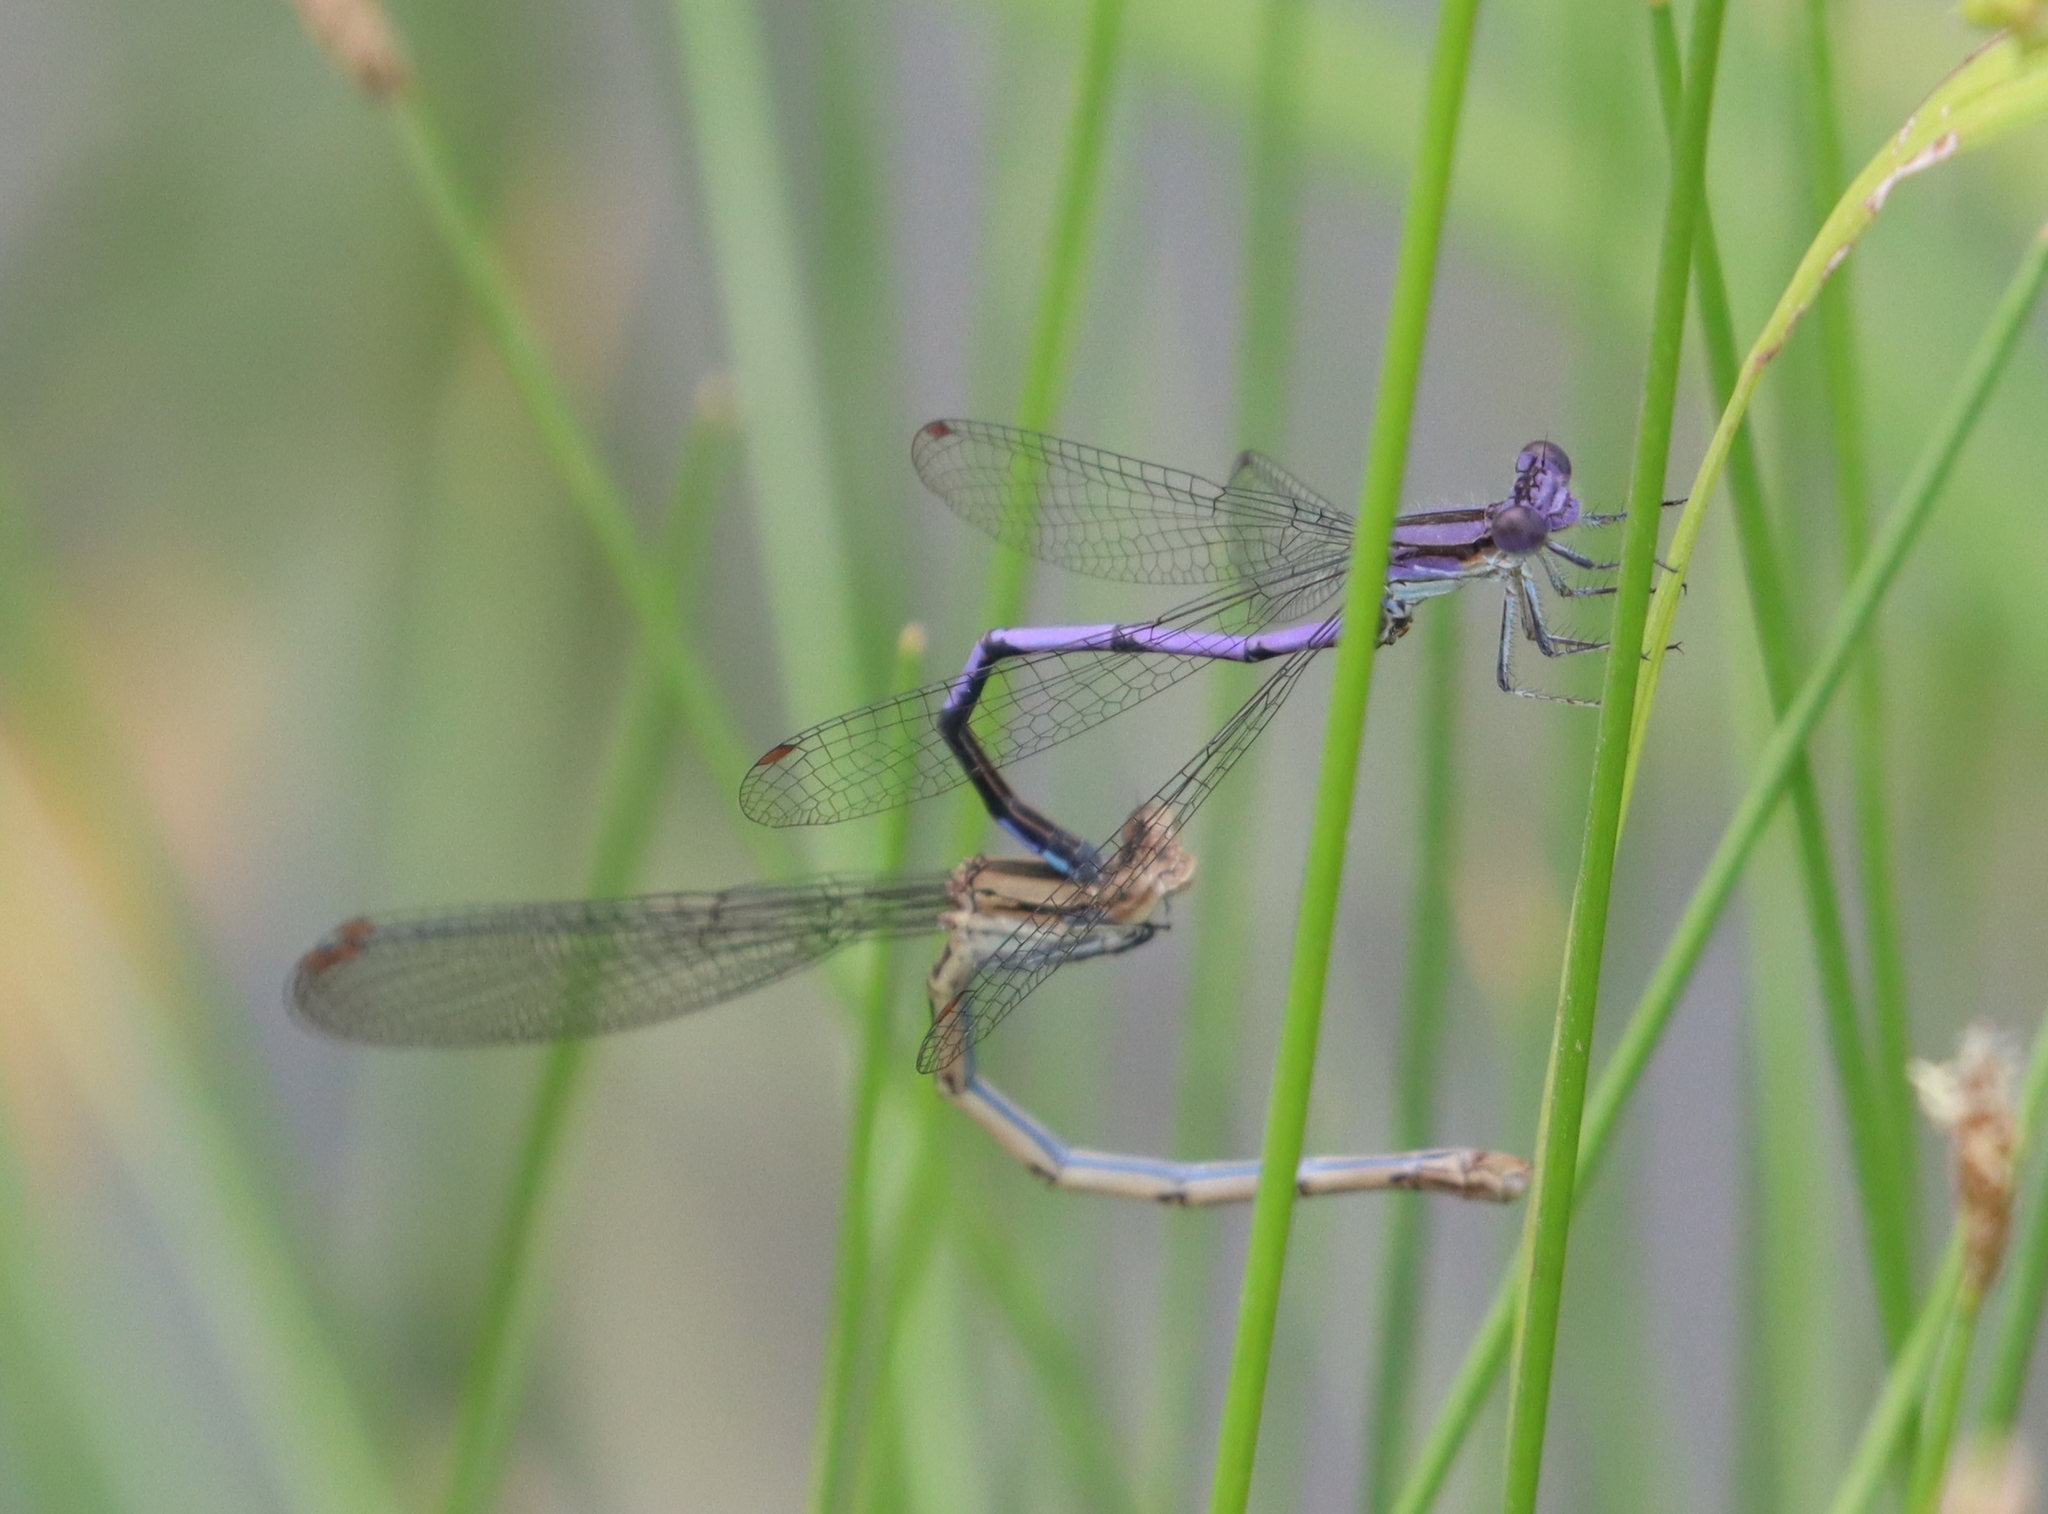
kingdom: Animalia
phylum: Arthropoda
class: Insecta
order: Odonata
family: Coenagrionidae
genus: Argia
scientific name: Argia fumipennis
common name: Variable dancer
